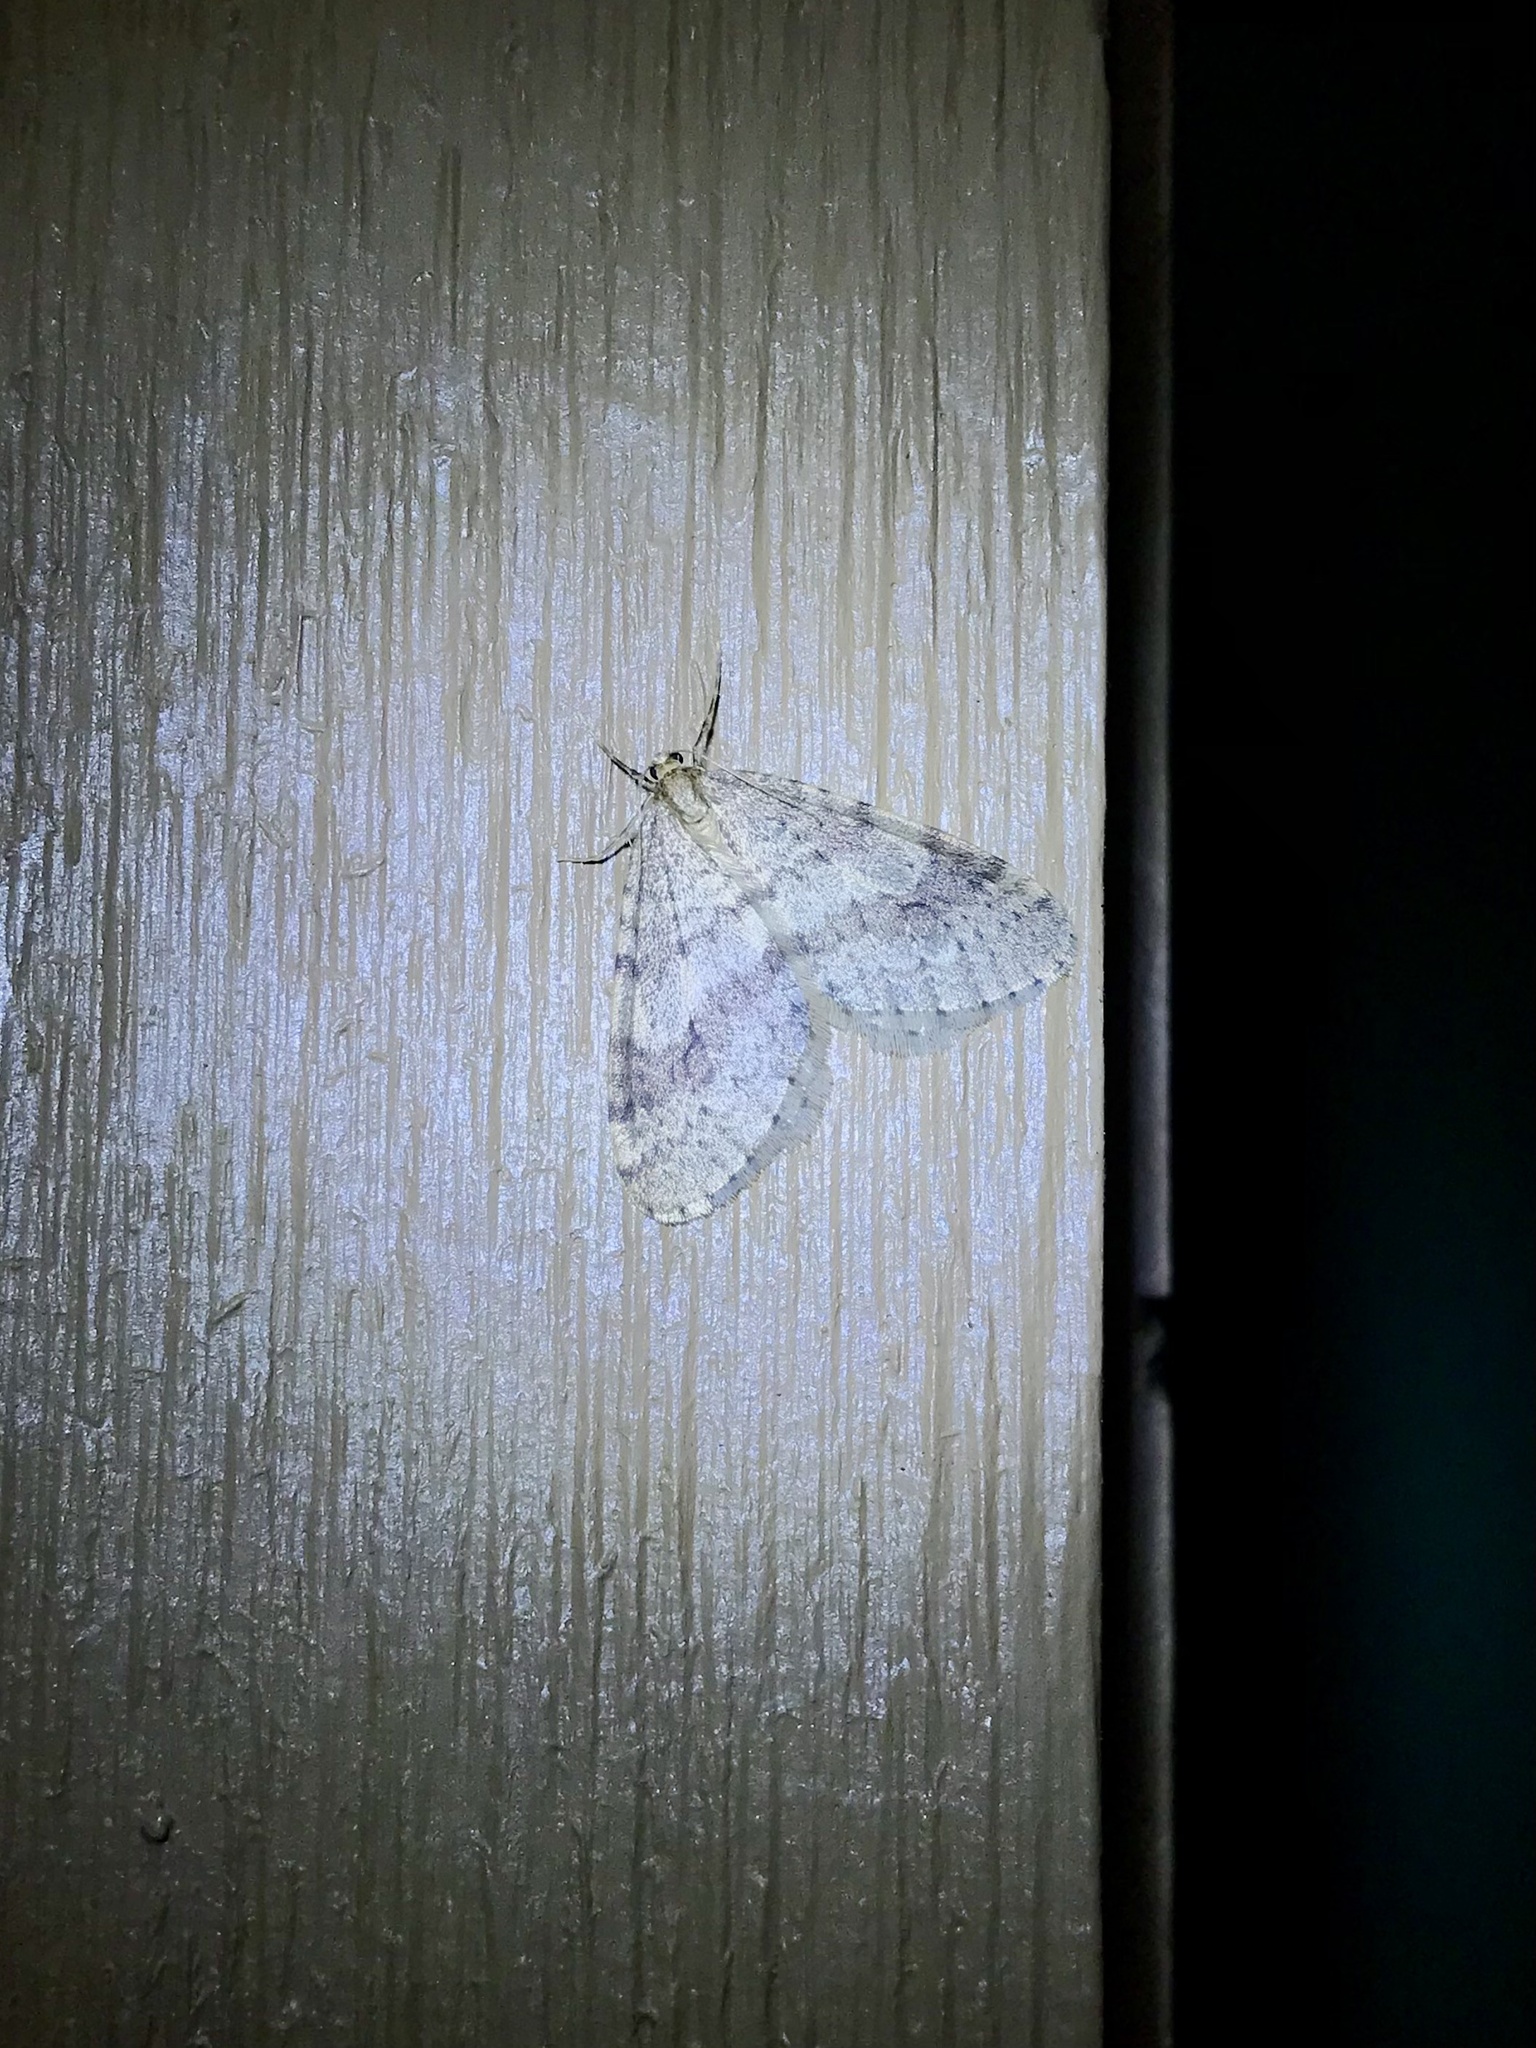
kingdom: Animalia
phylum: Arthropoda
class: Insecta
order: Lepidoptera
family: Geometridae
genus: Operophtera
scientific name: Operophtera bruceata
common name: Bruce spanworm
